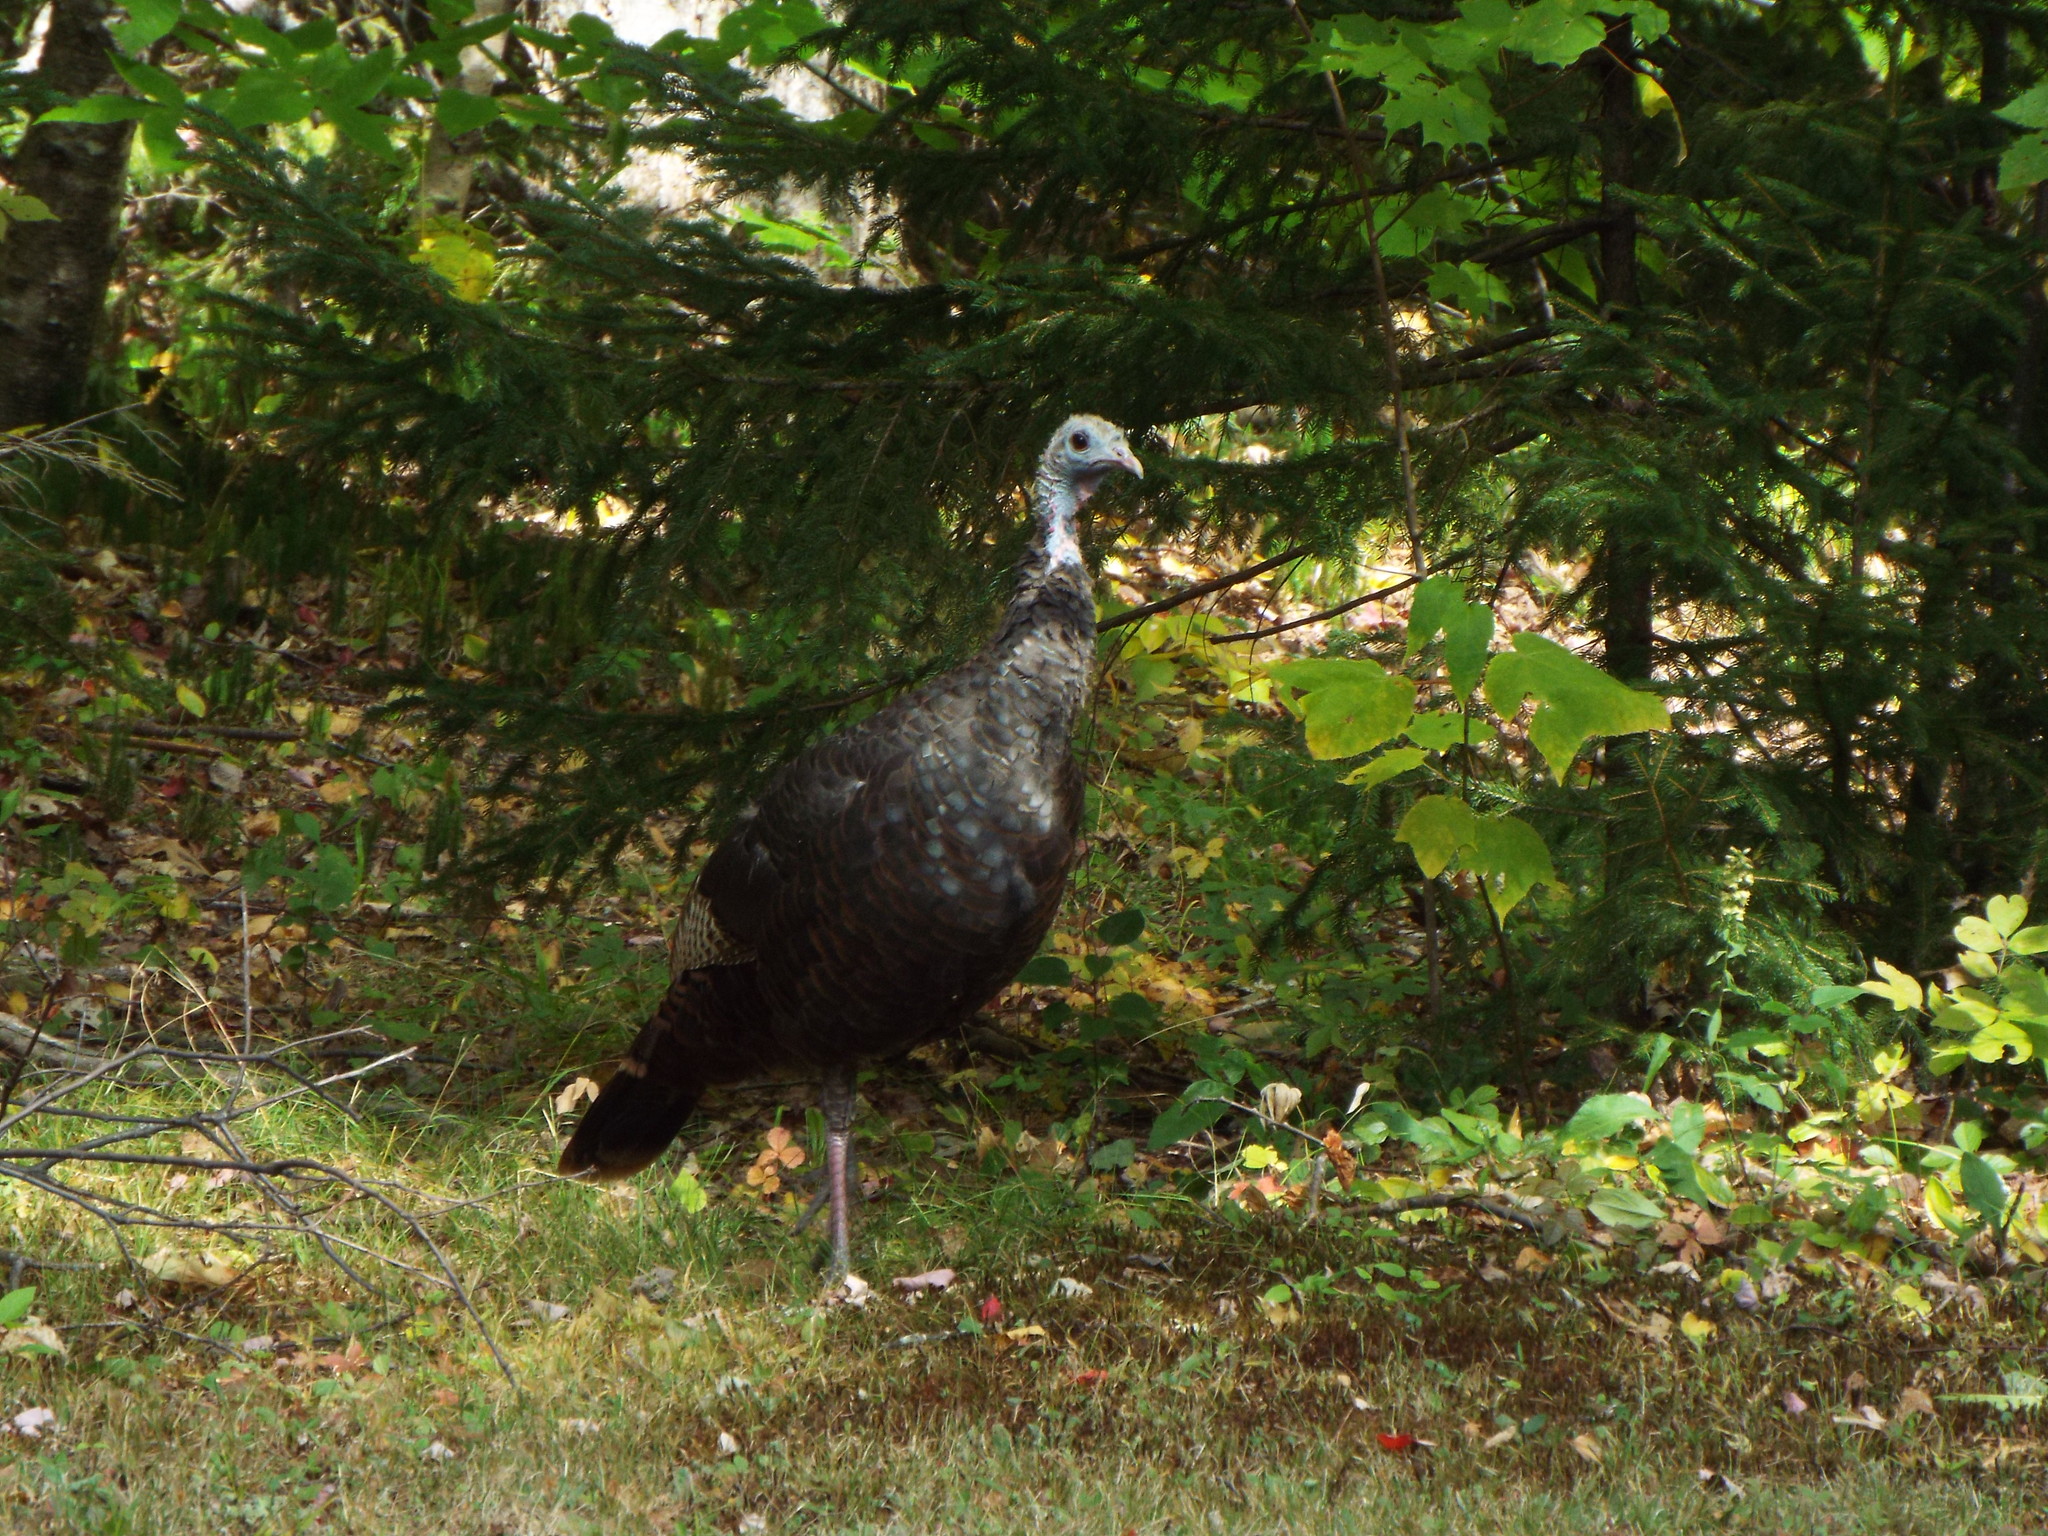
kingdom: Animalia
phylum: Chordata
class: Aves
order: Galliformes
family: Phasianidae
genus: Meleagris
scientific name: Meleagris gallopavo
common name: Wild turkey
